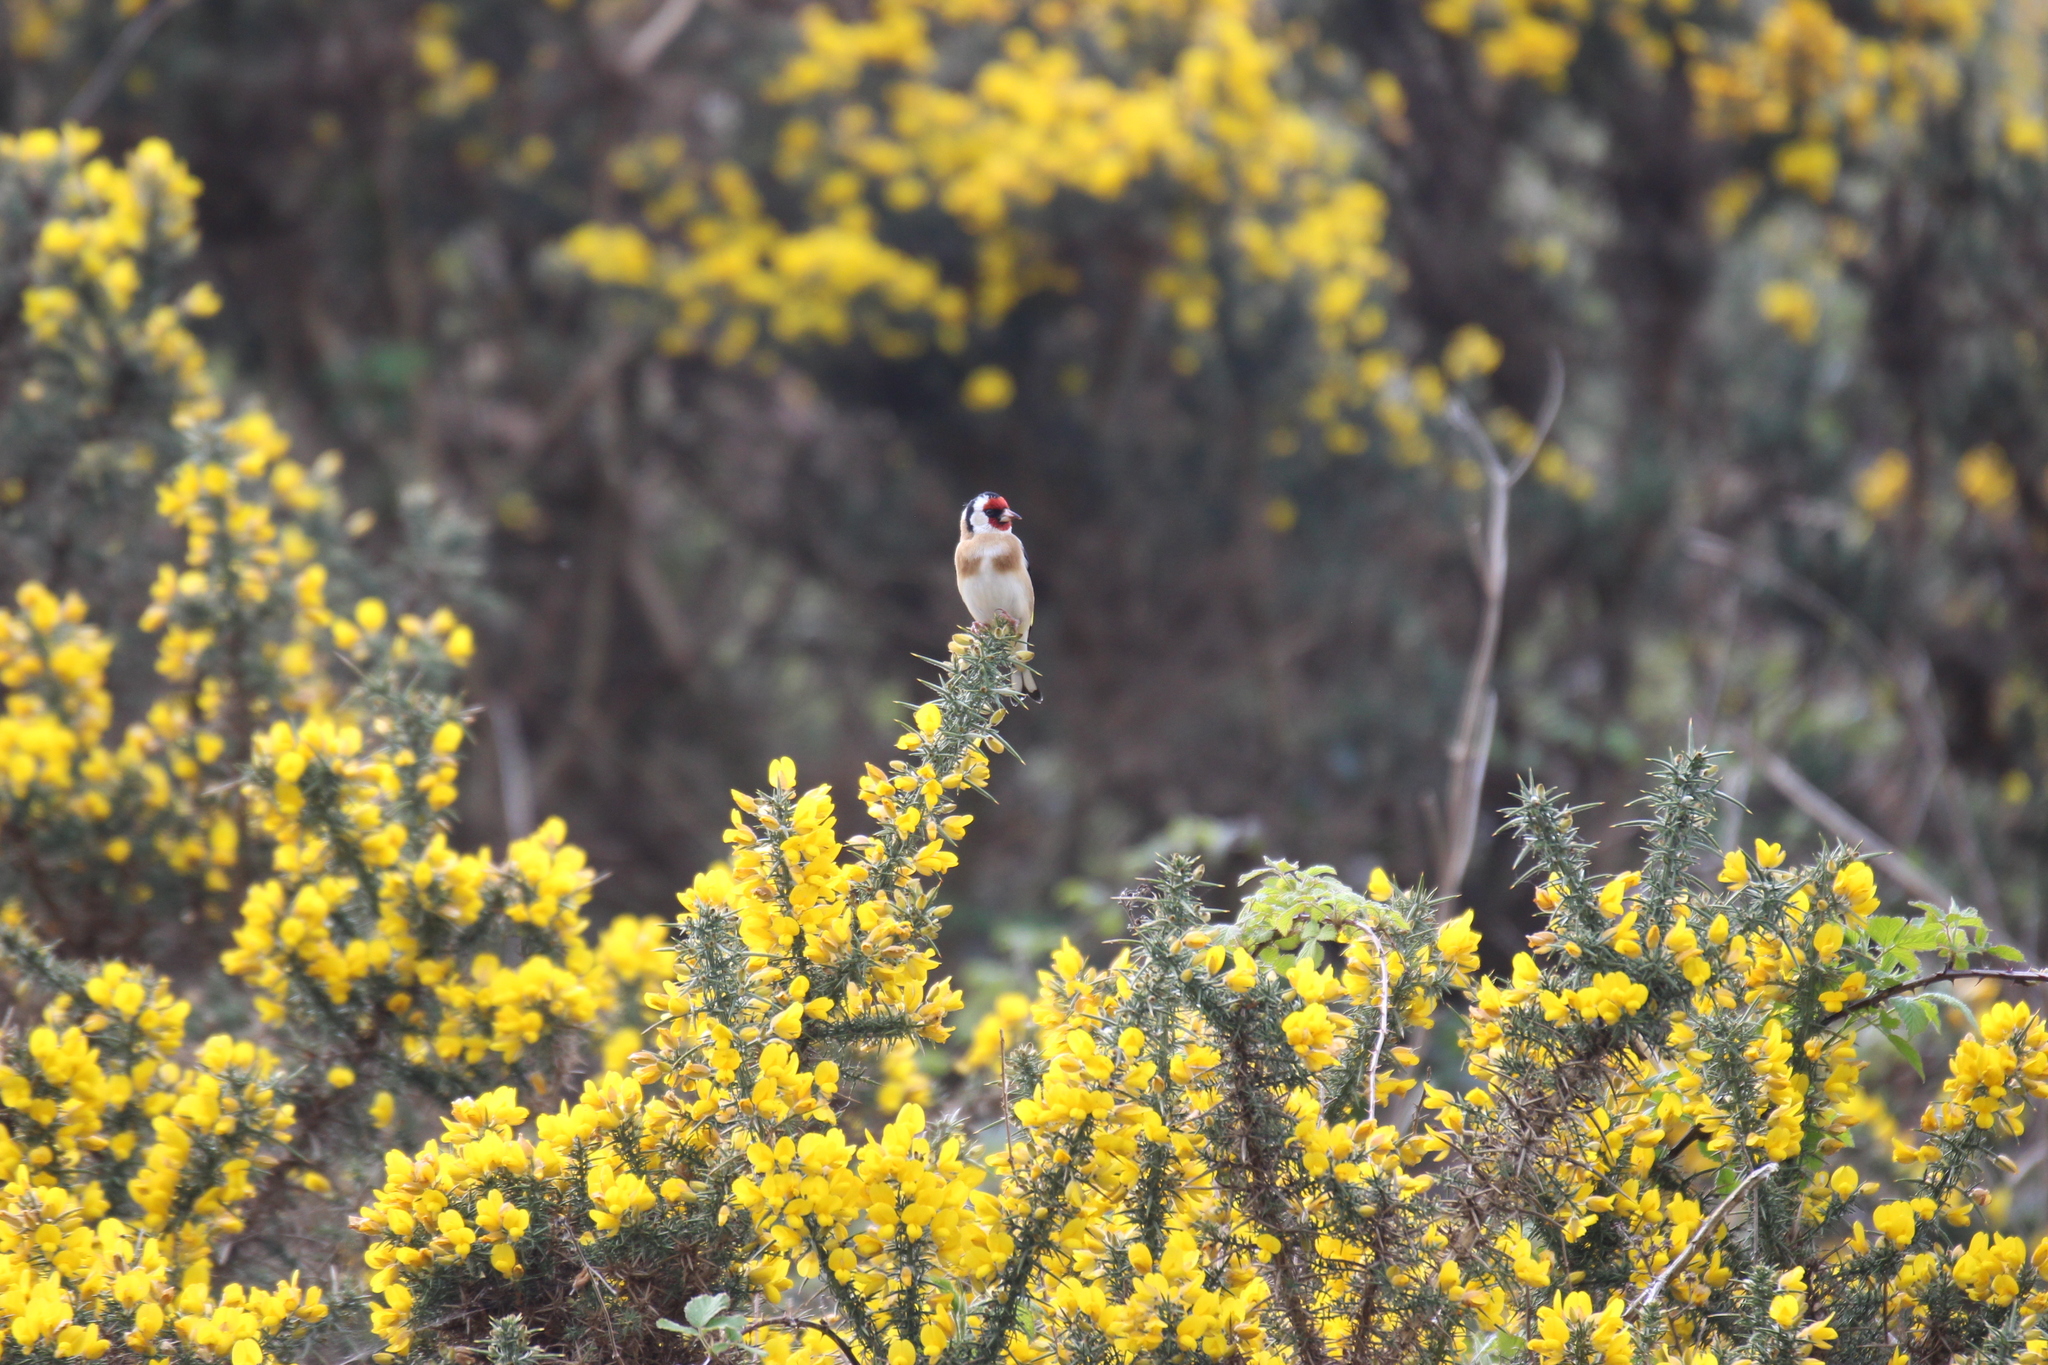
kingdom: Animalia
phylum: Chordata
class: Aves
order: Passeriformes
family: Fringillidae
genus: Carduelis
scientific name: Carduelis carduelis
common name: European goldfinch
